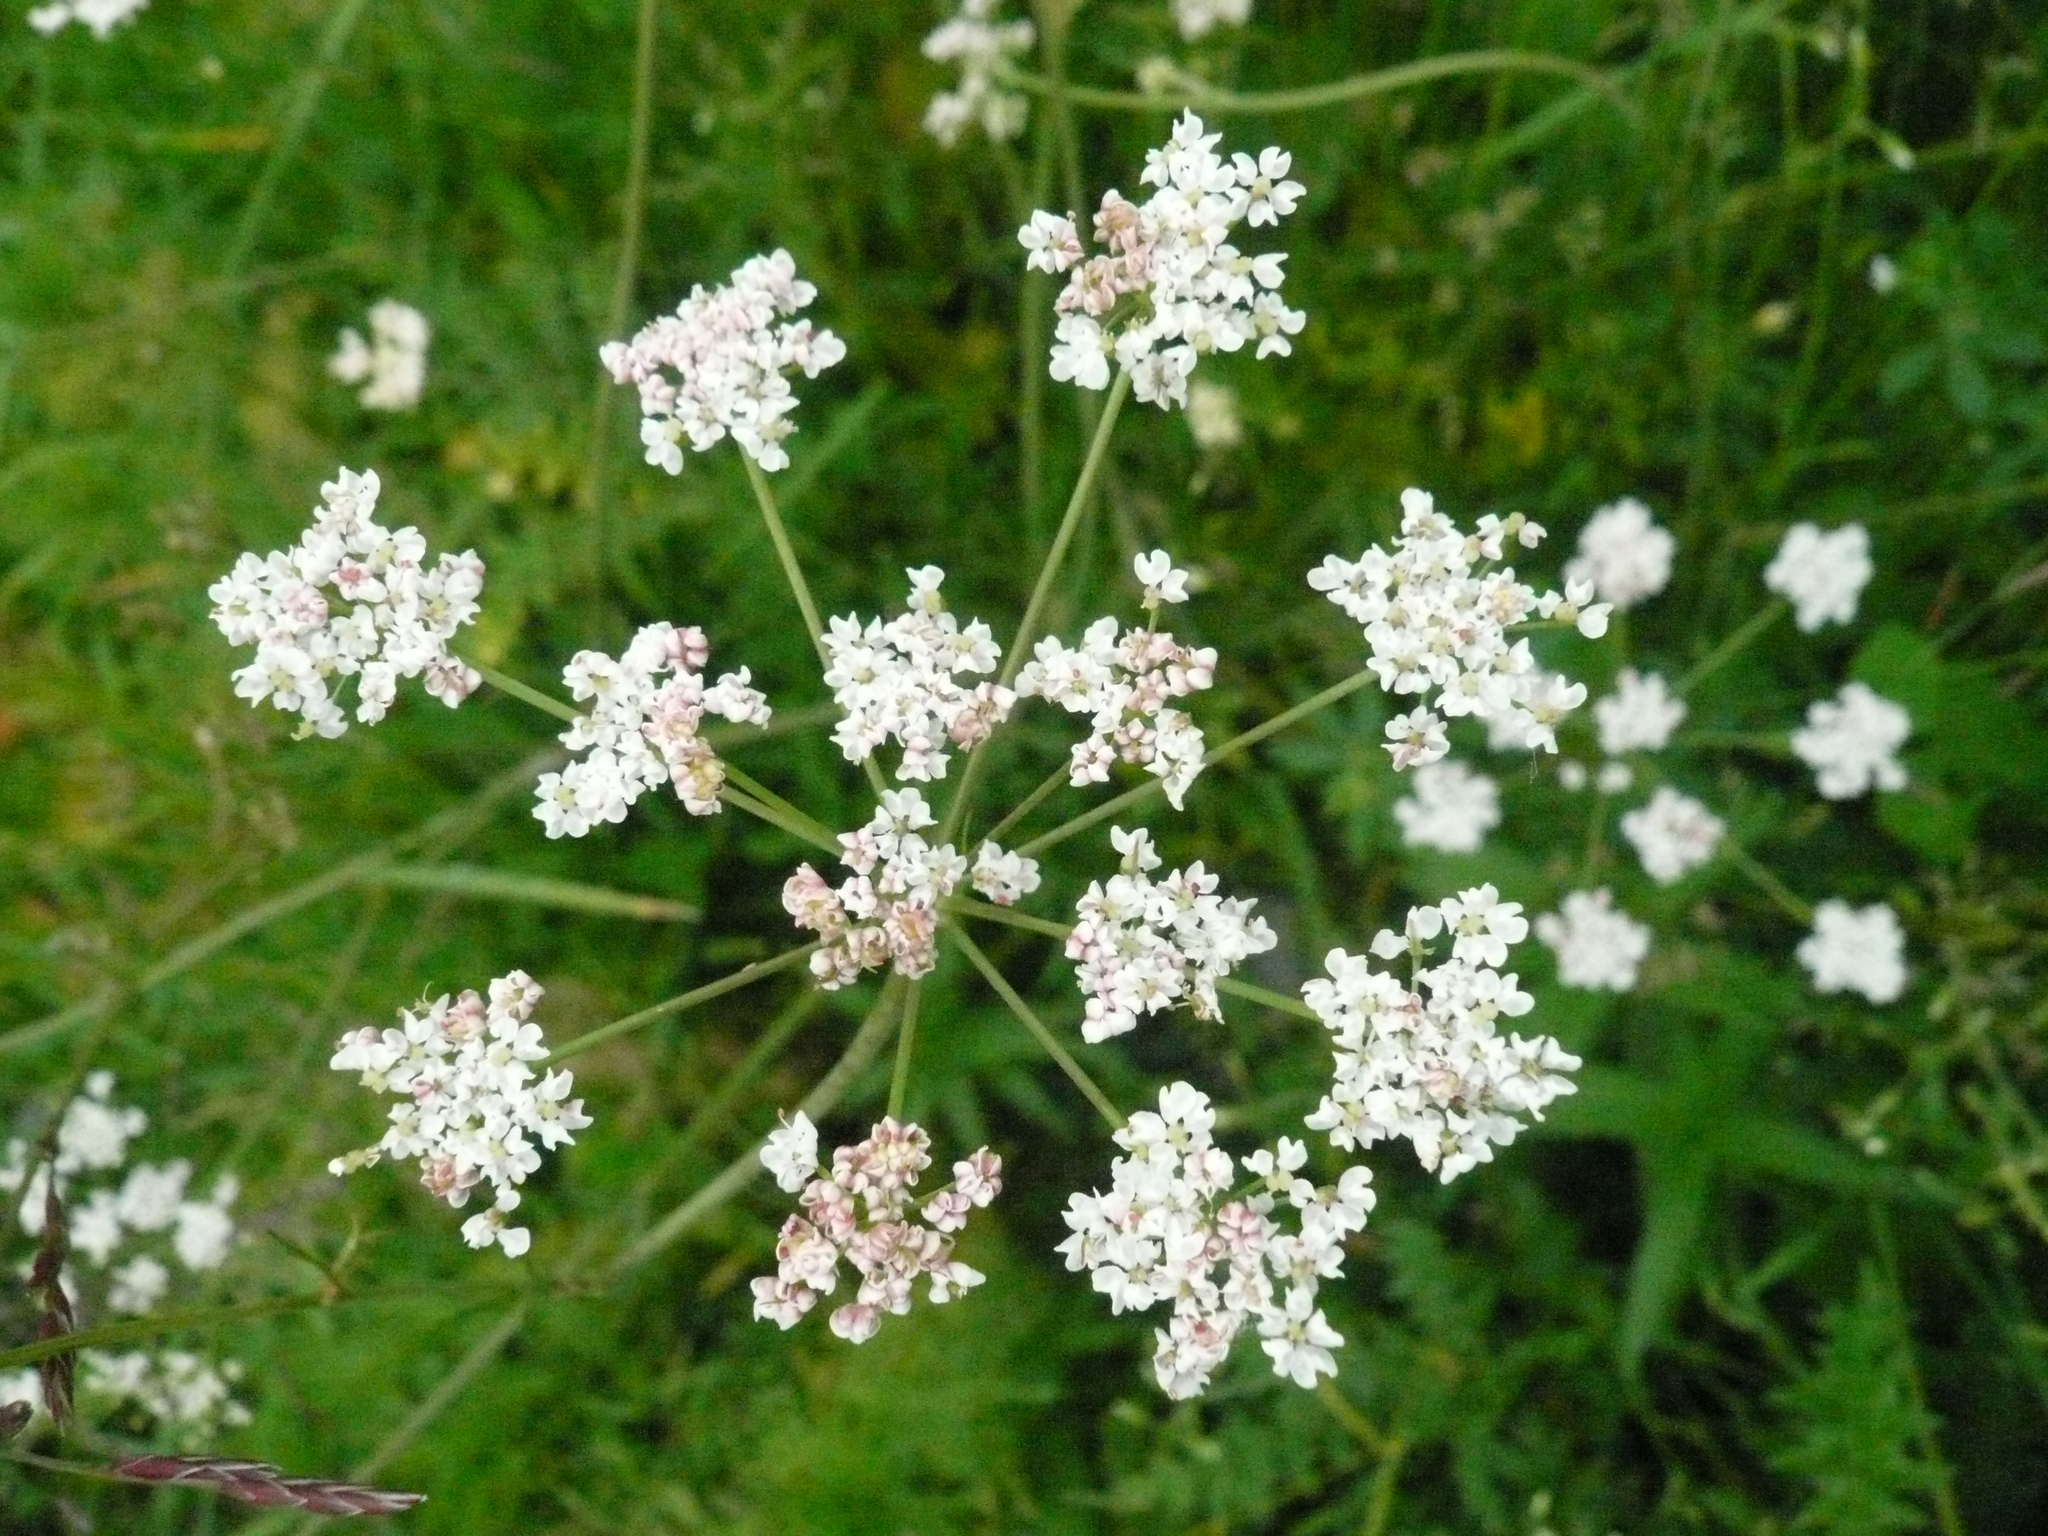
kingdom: Plantae
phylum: Tracheophyta
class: Magnoliopsida
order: Apiales
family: Apiaceae
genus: Carum
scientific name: Carum carvi
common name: Caraway
